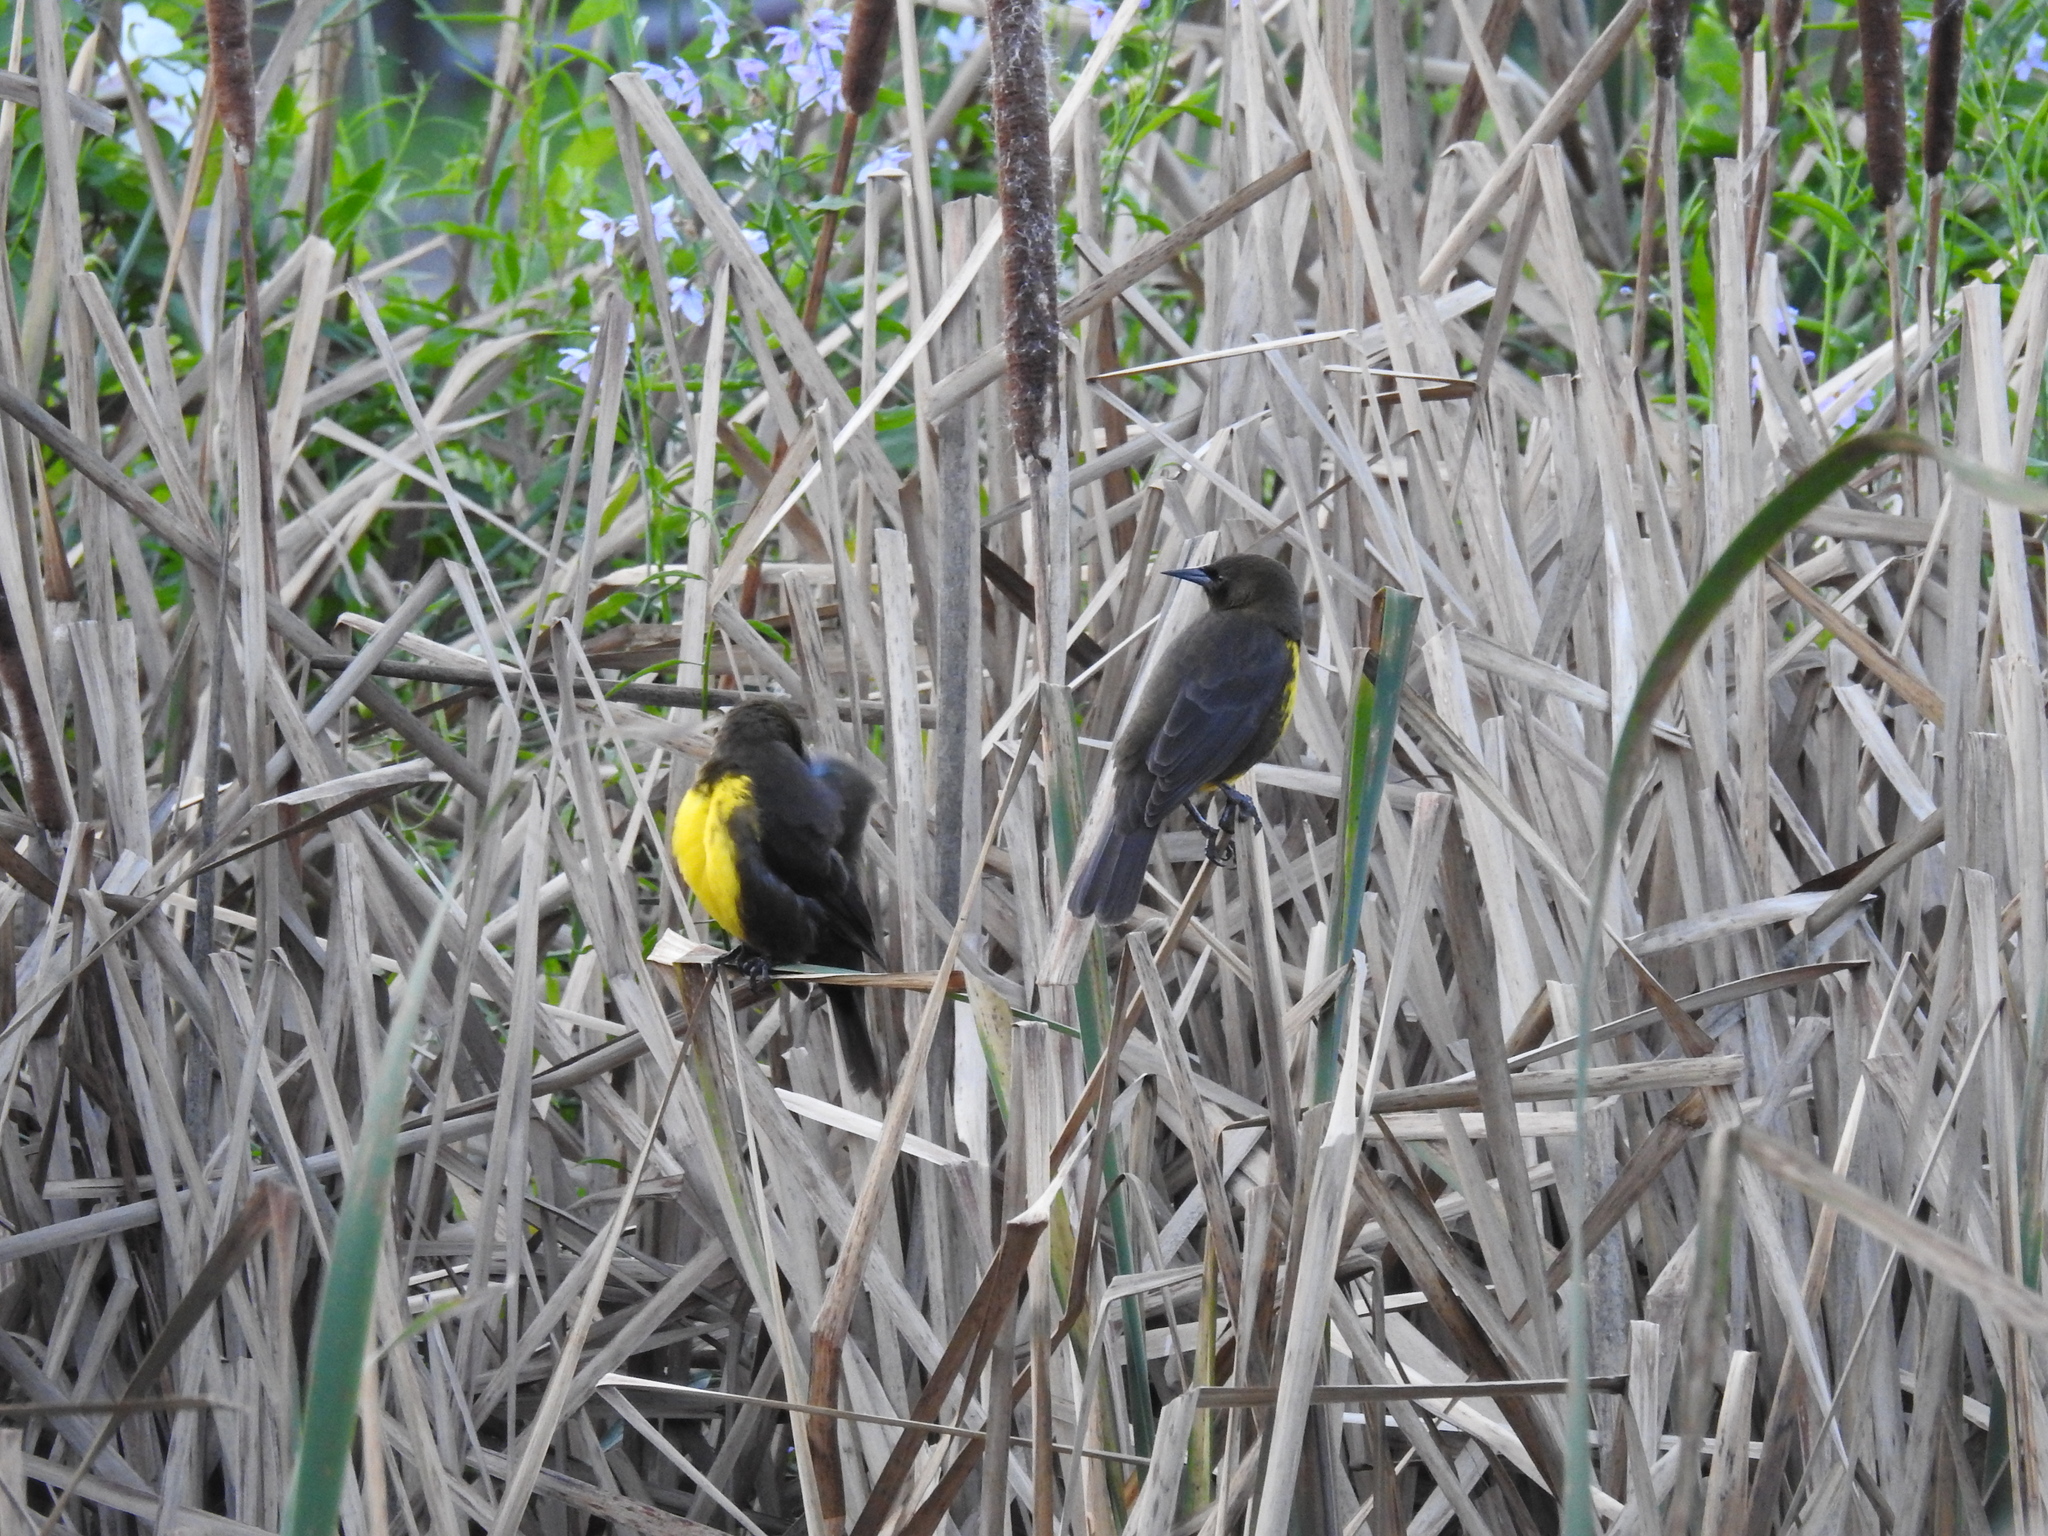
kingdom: Animalia
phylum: Chordata
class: Aves
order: Passeriformes
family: Icteridae
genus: Pseudoleistes
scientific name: Pseudoleistes virescens
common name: Brown-and-yellow marshbird
